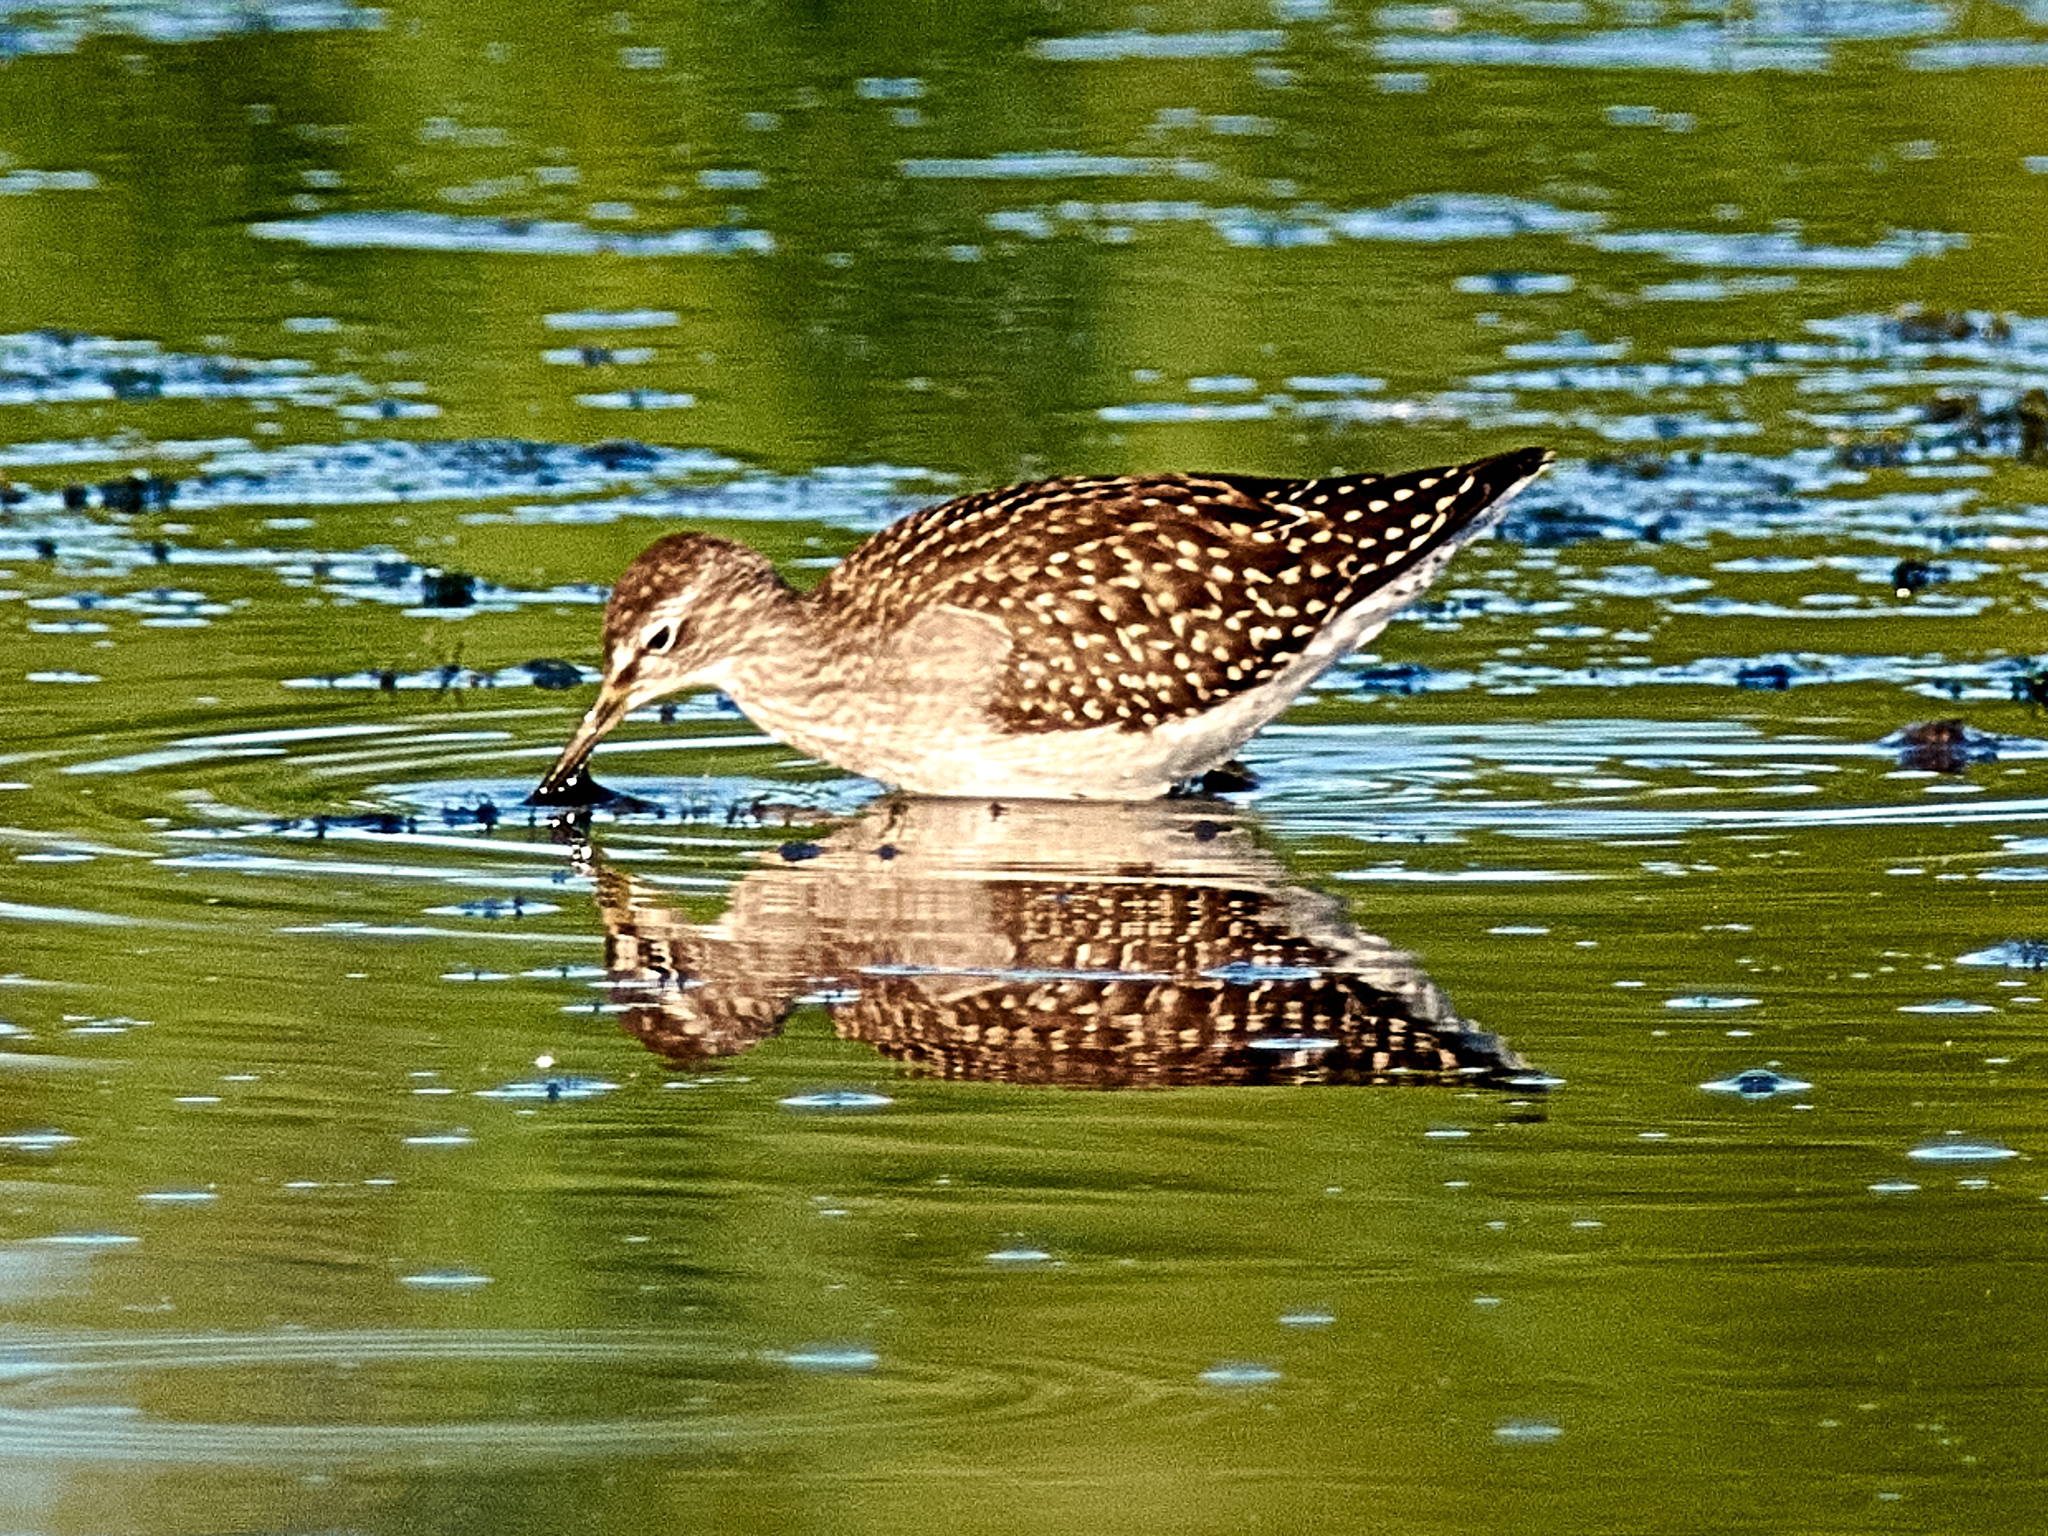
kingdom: Animalia
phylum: Chordata
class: Aves
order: Charadriiformes
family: Scolopacidae
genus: Tringa
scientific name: Tringa glareola
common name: Wood sandpiper
